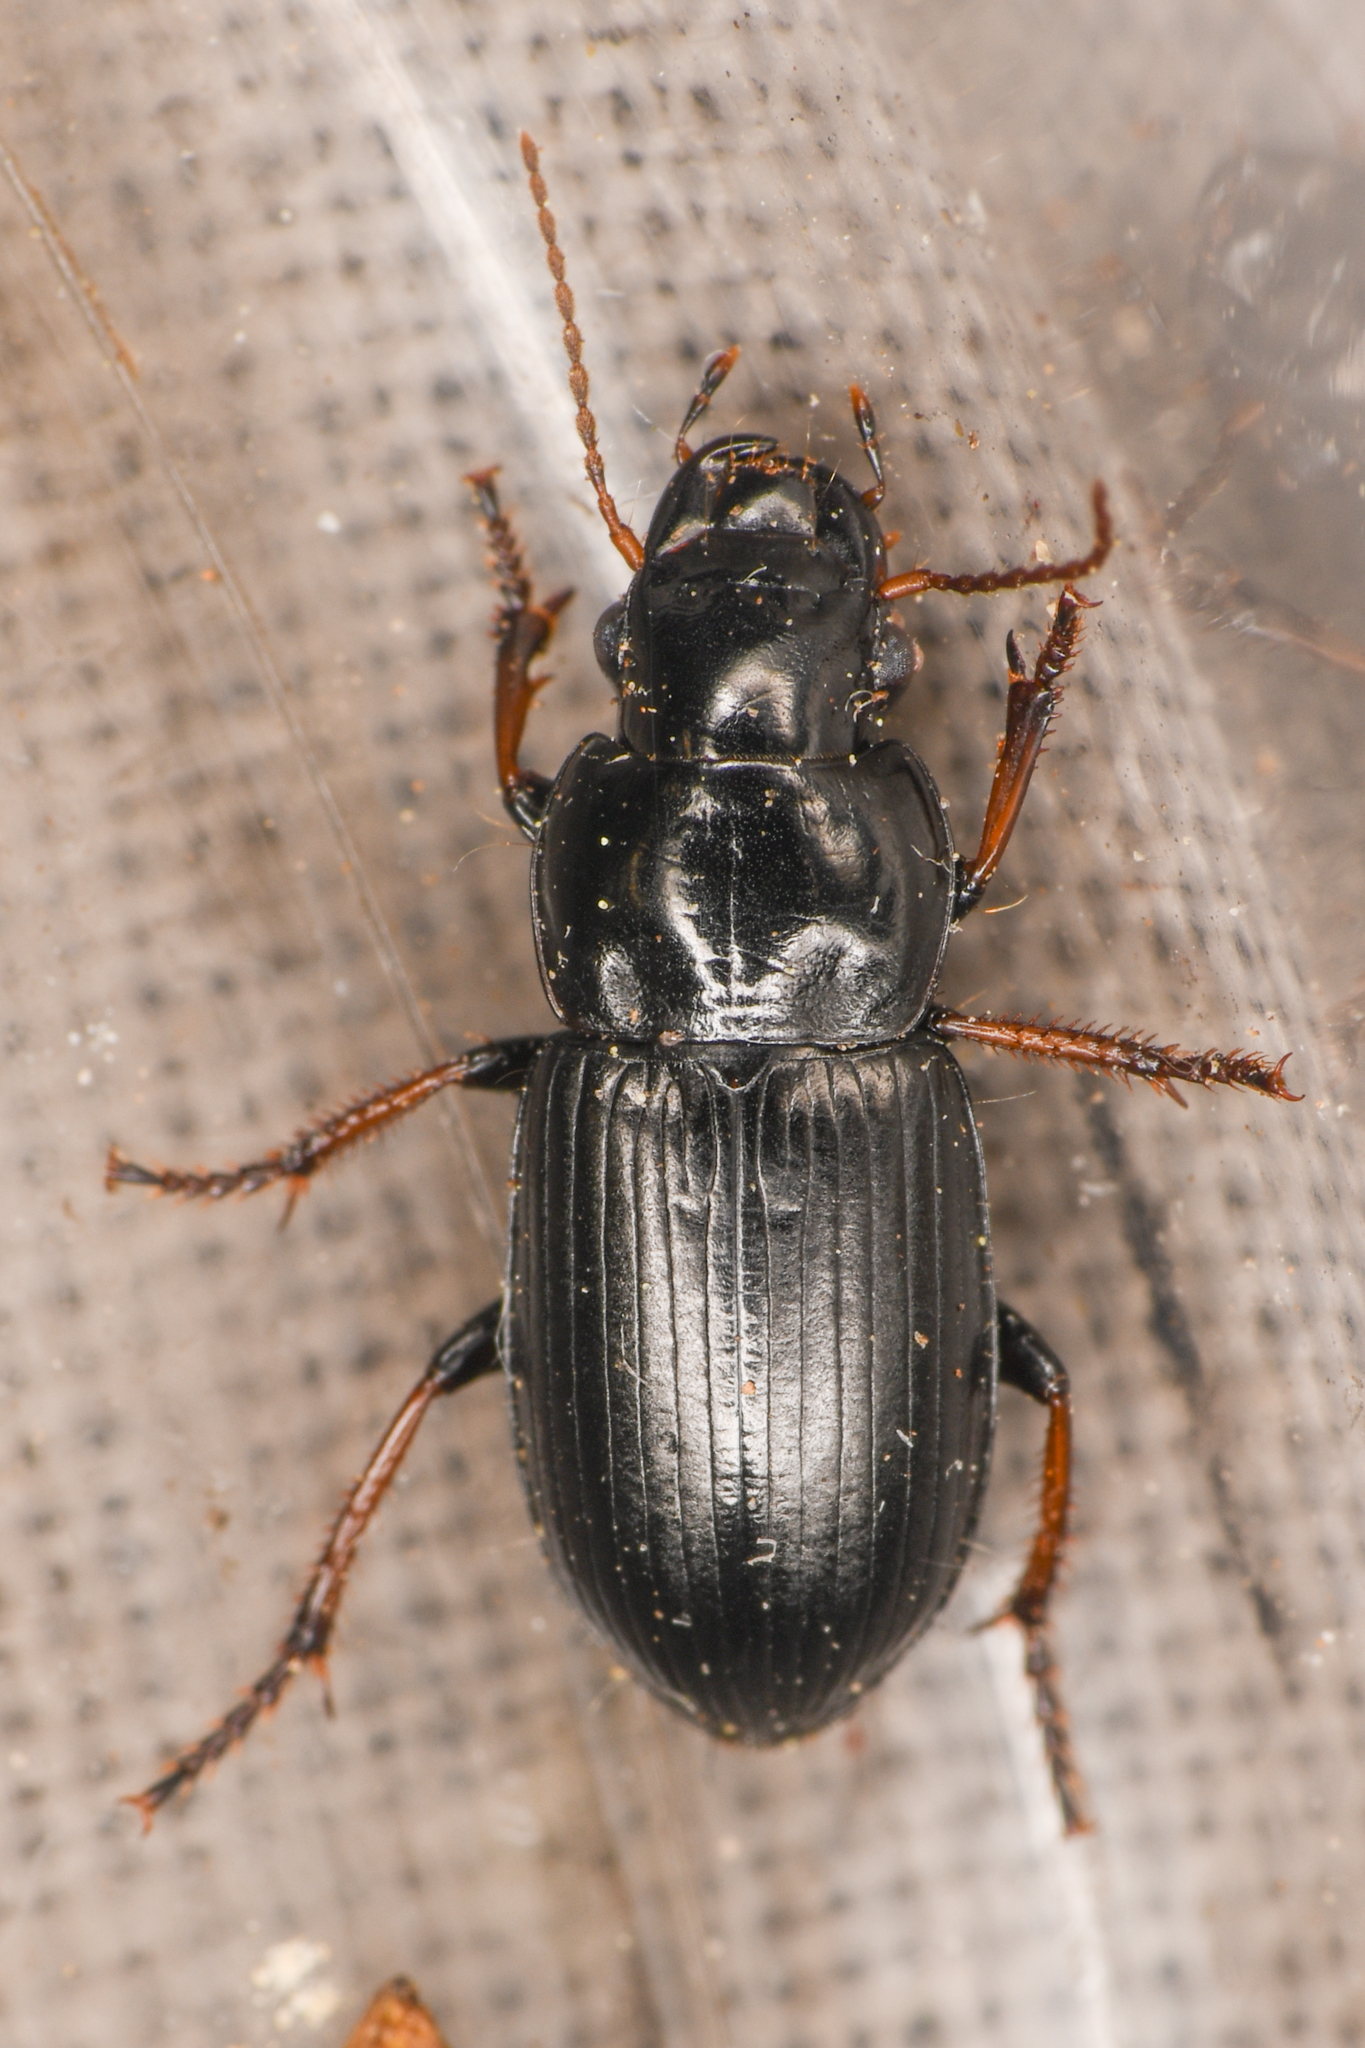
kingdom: Animalia
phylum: Arthropoda
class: Insecta
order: Coleoptera
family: Carabidae
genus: Harpalus
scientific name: Harpalus nigritarsis
